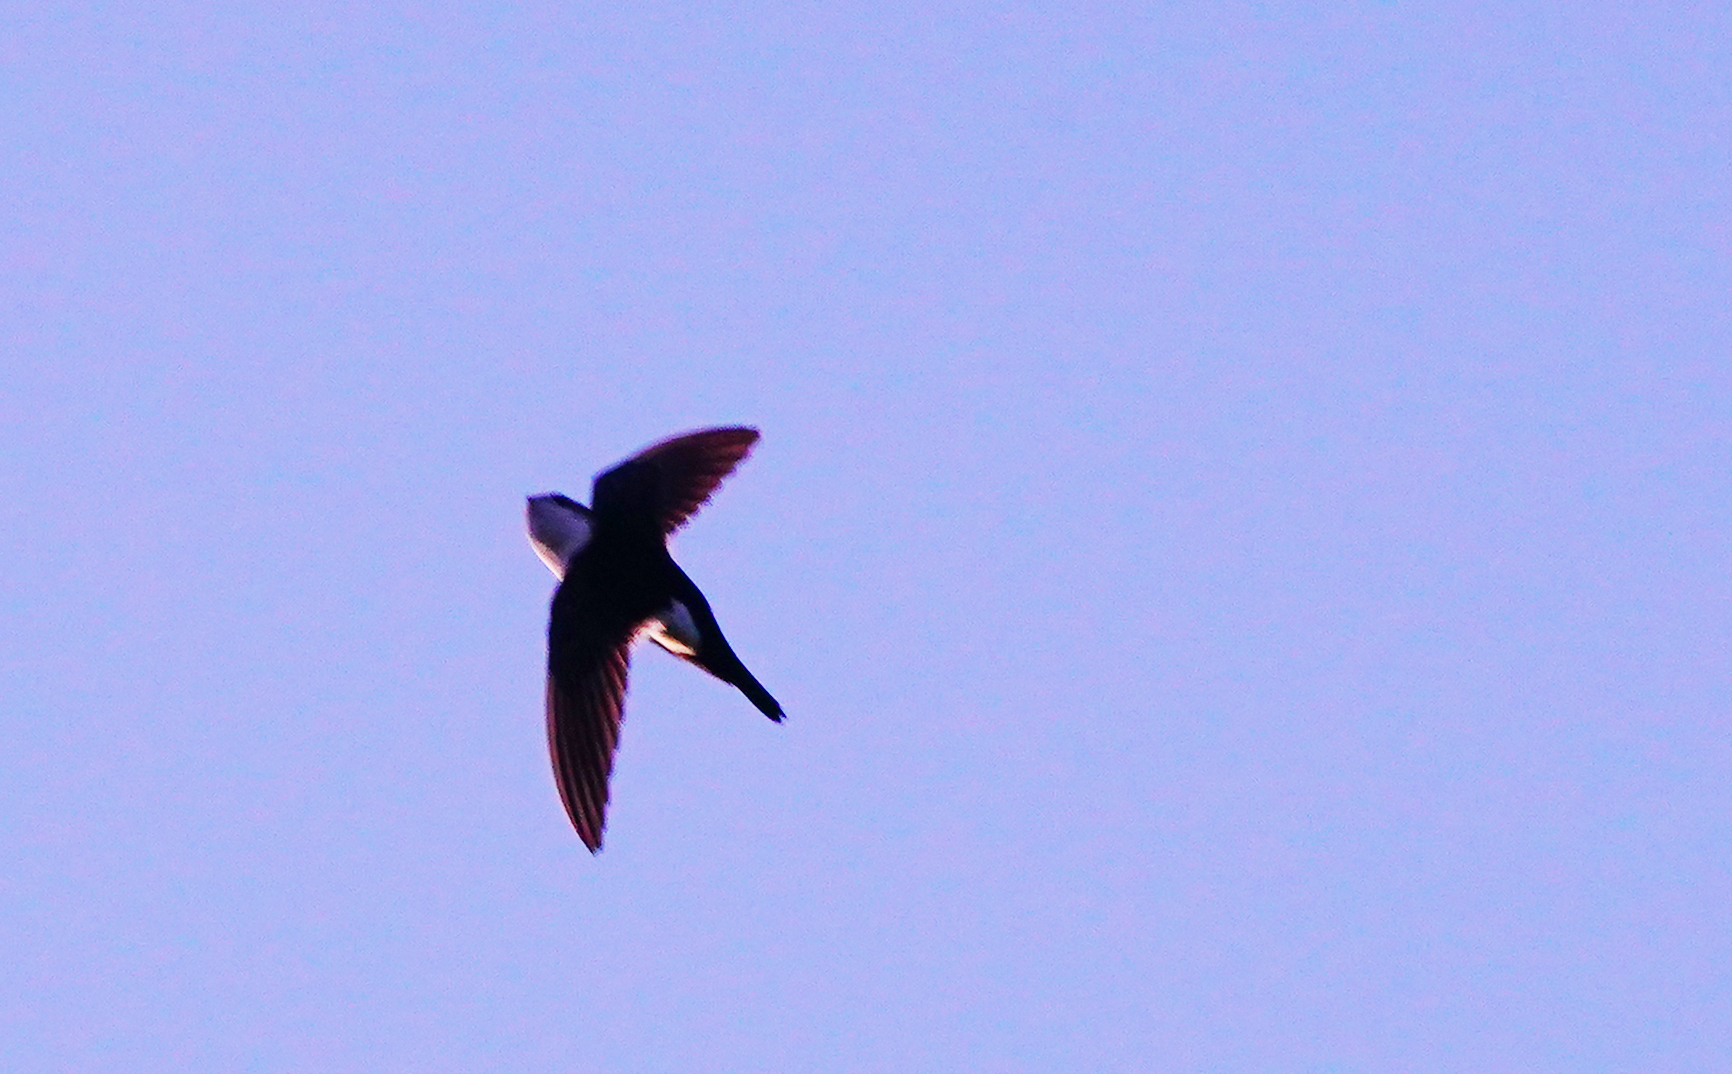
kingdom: Animalia
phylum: Chordata
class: Aves
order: Apodiformes
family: Apodidae
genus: Aeronautes
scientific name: Aeronautes saxatalis
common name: White-throated swift
